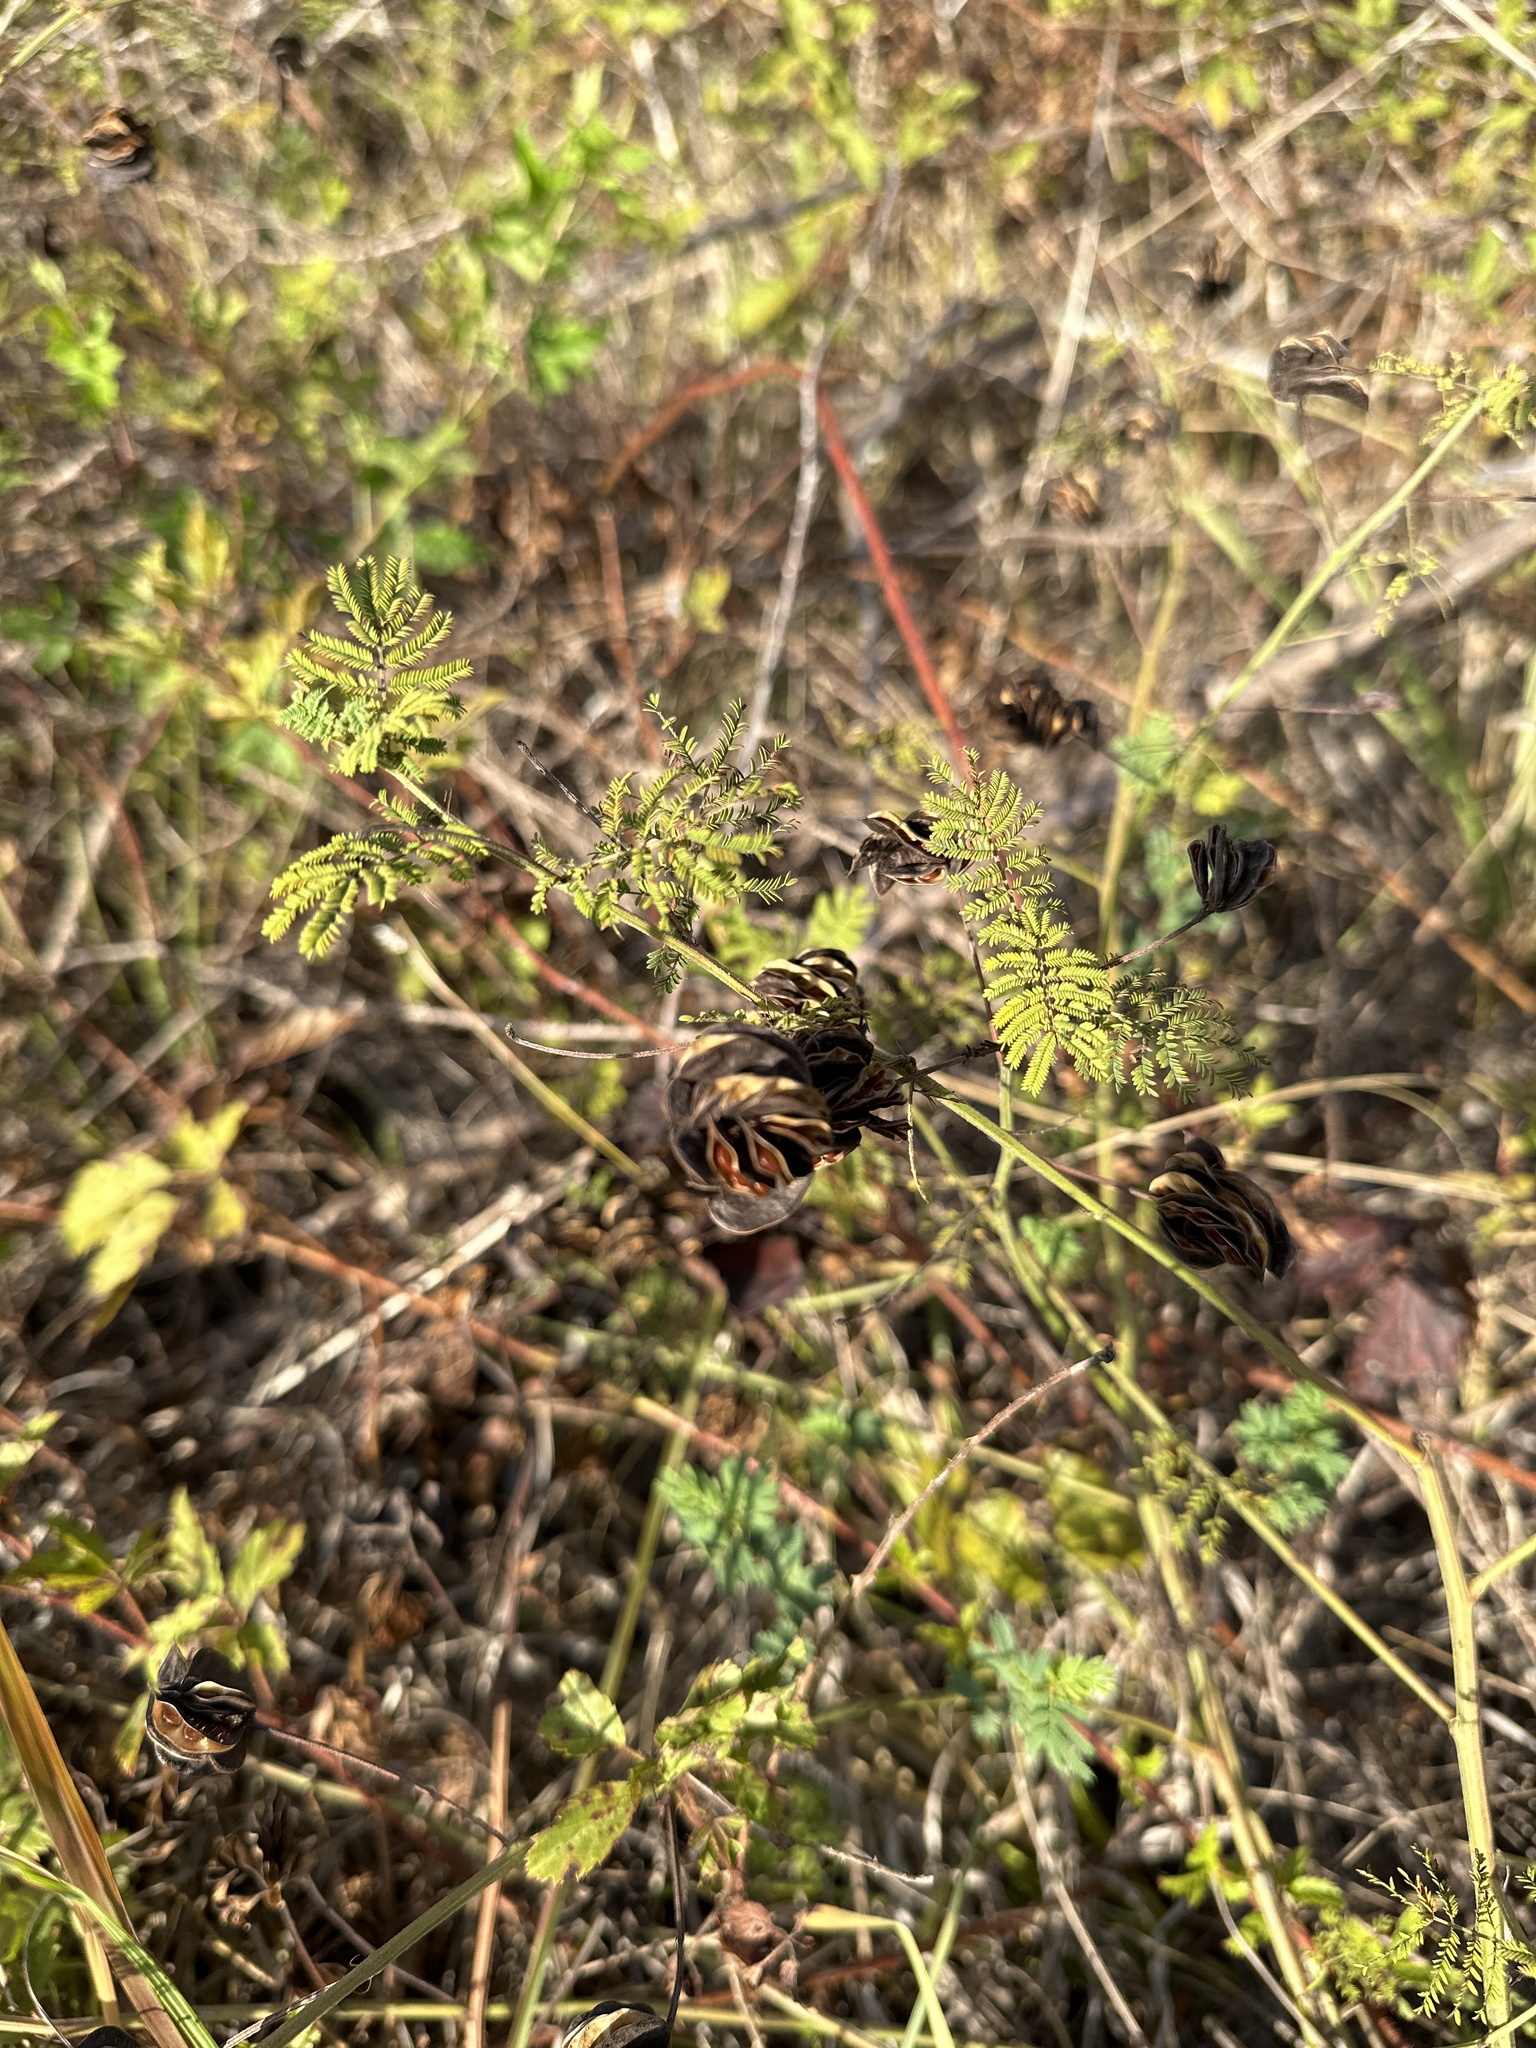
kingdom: Plantae
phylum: Tracheophyta
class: Magnoliopsida
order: Fabales
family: Fabaceae
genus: Desmanthus
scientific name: Desmanthus illinoensis
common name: Illinois bundle-flower
